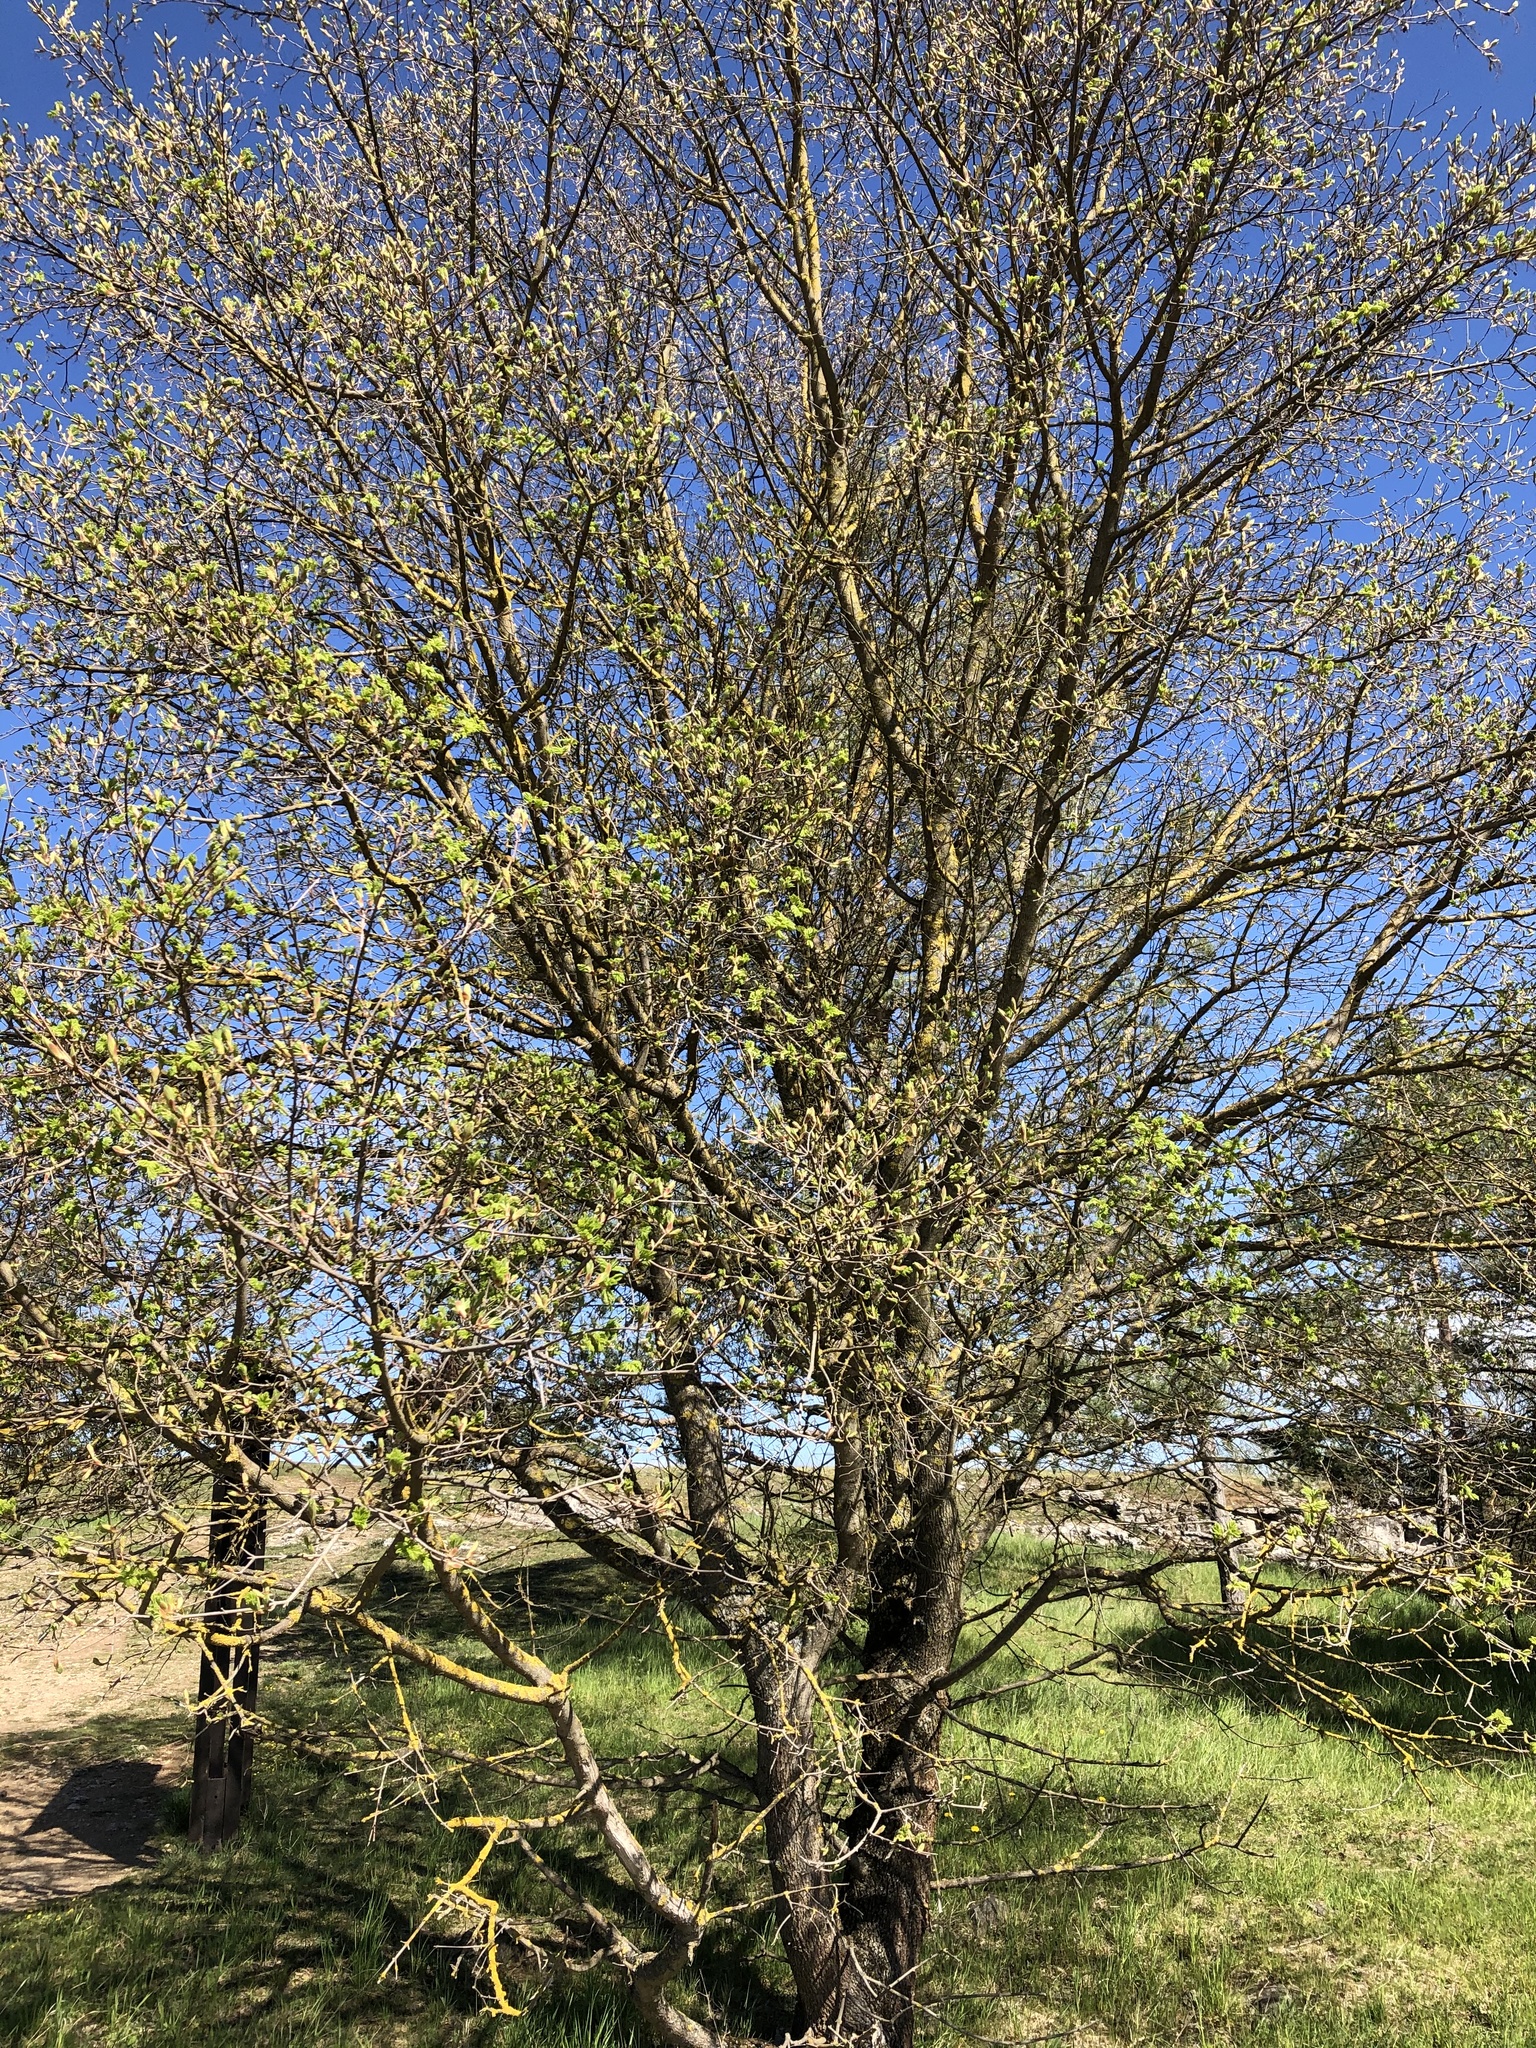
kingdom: Plantae
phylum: Tracheophyta
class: Magnoliopsida
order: Sapindales
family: Sapindaceae
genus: Acer
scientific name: Acer campestre
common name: Field maple
